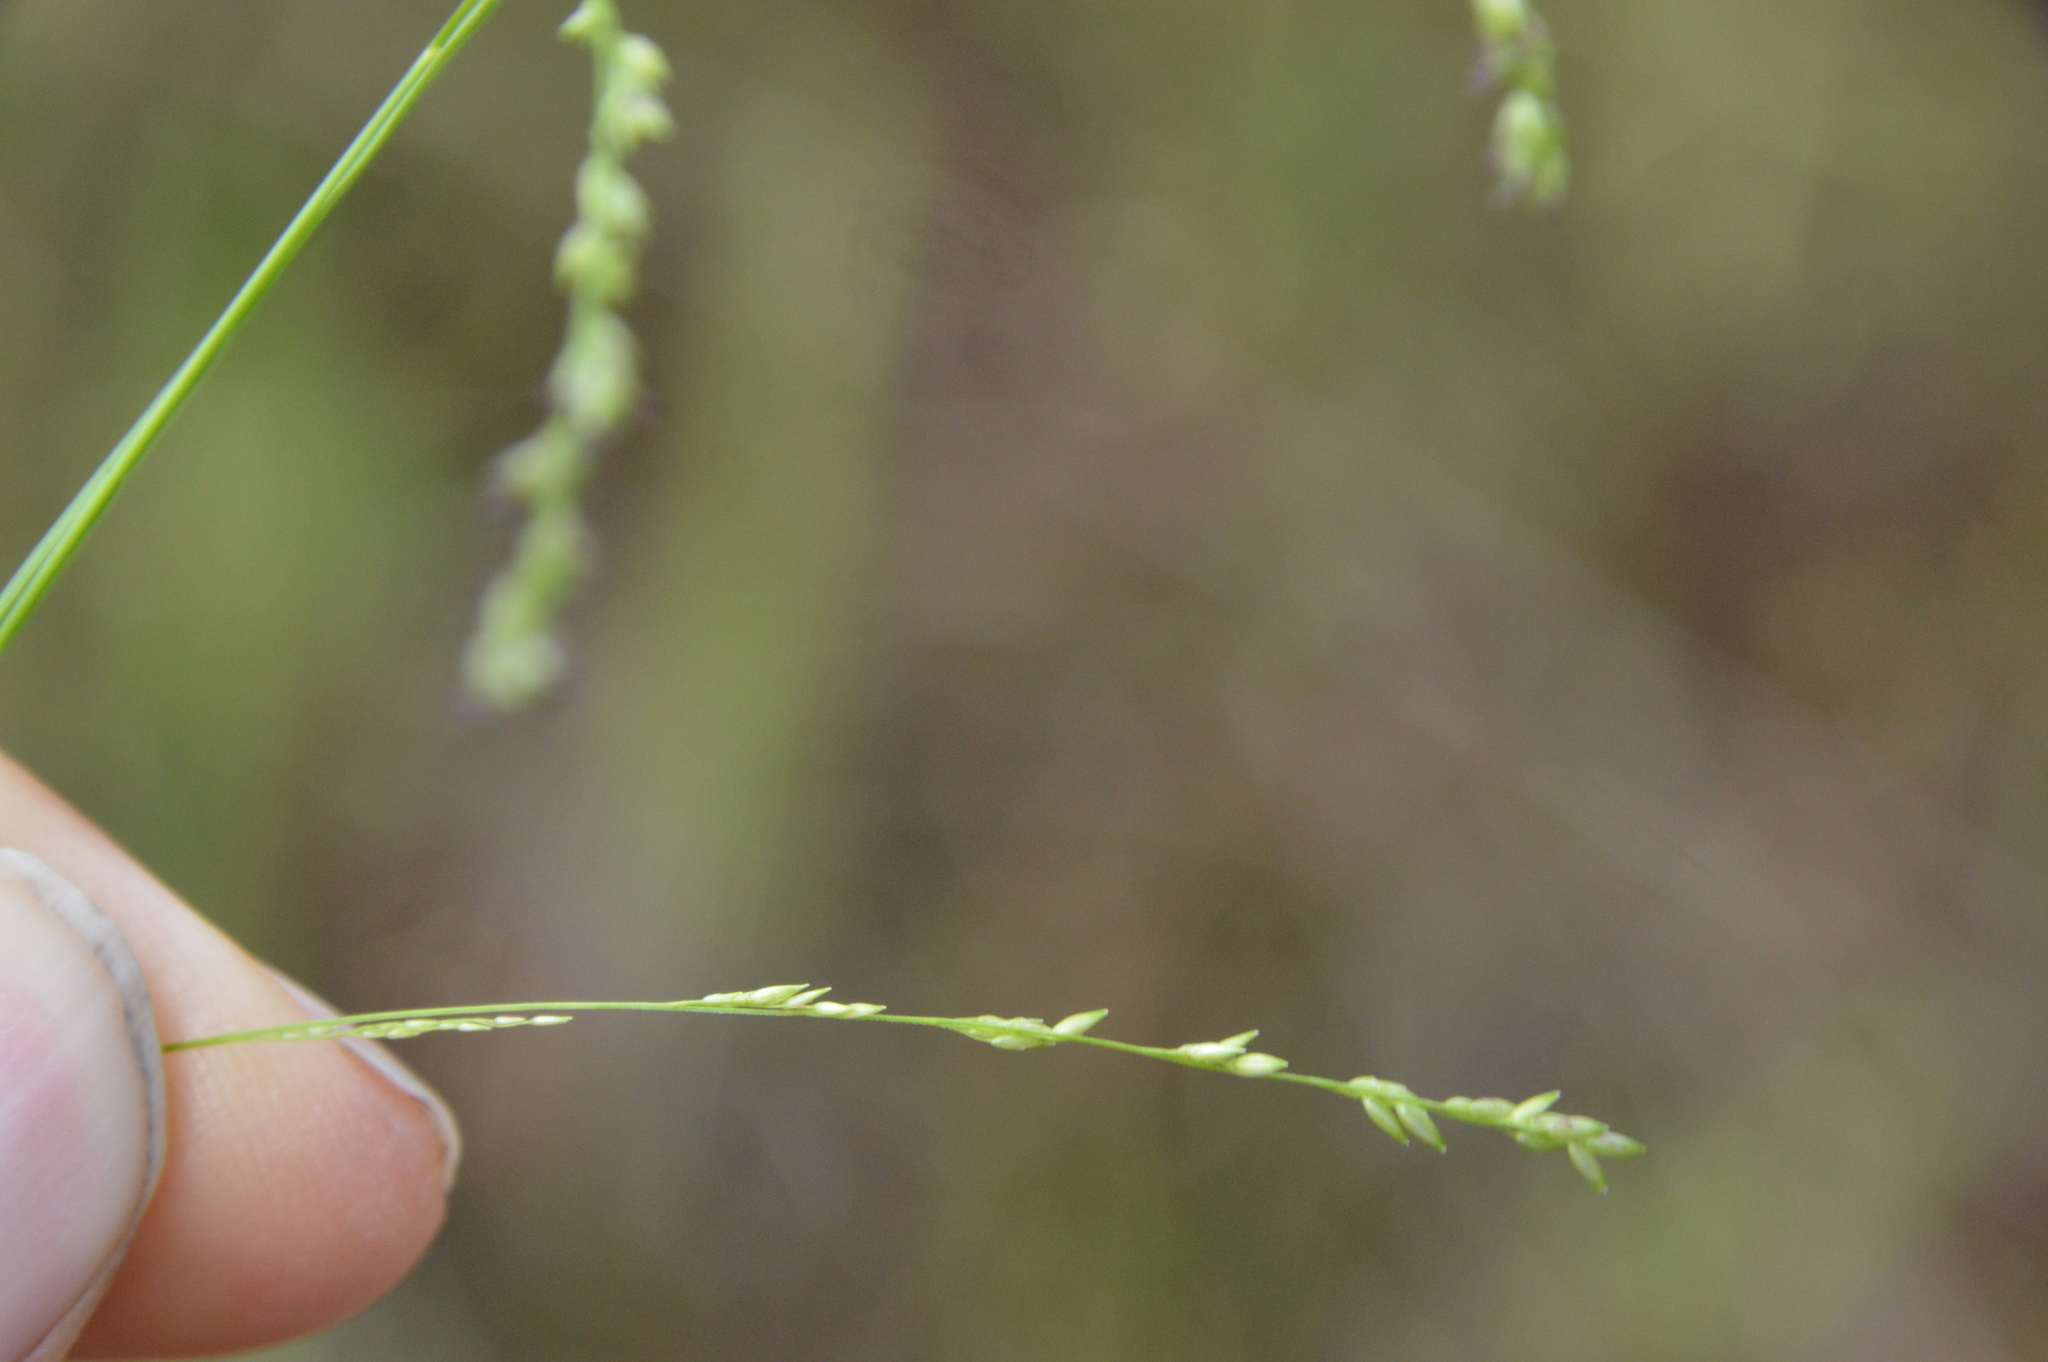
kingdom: Plantae
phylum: Tracheophyta
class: Liliopsida
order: Poales
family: Poaceae
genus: Steinchisma
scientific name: Steinchisma hians
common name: Gaping panic grass
